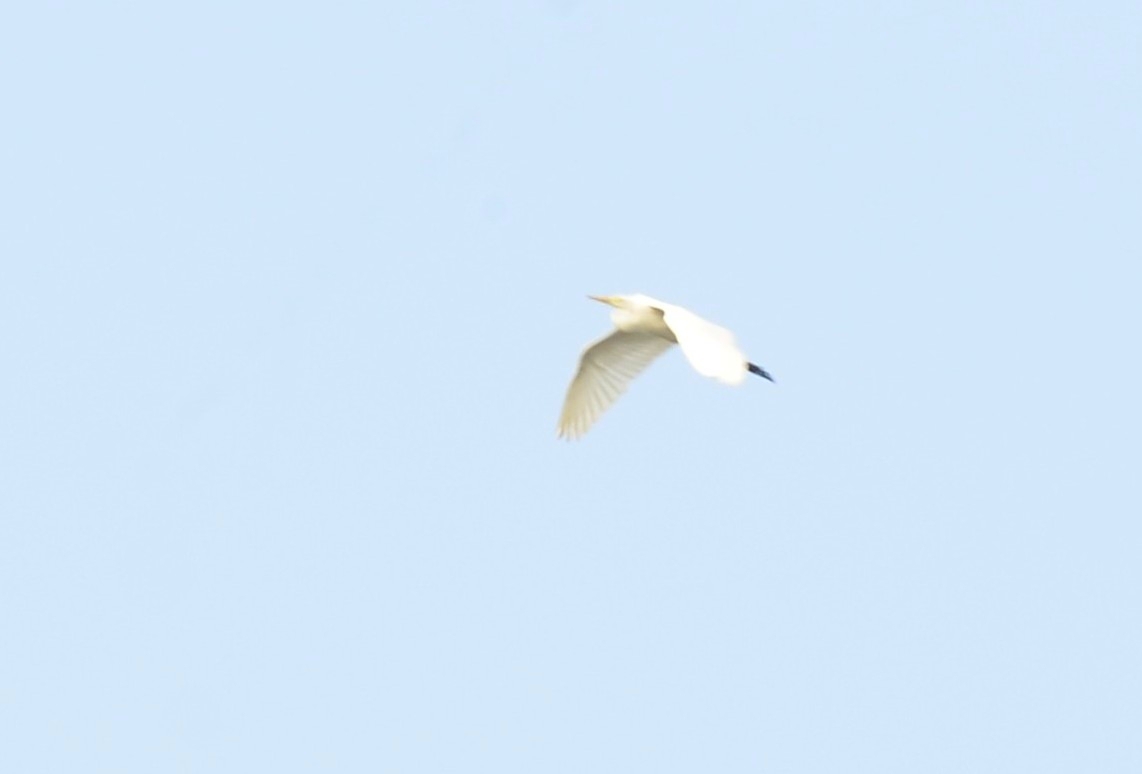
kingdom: Animalia
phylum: Chordata
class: Aves
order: Pelecaniformes
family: Ardeidae
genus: Bubulcus
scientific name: Bubulcus coromandus
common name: Eastern cattle egret
